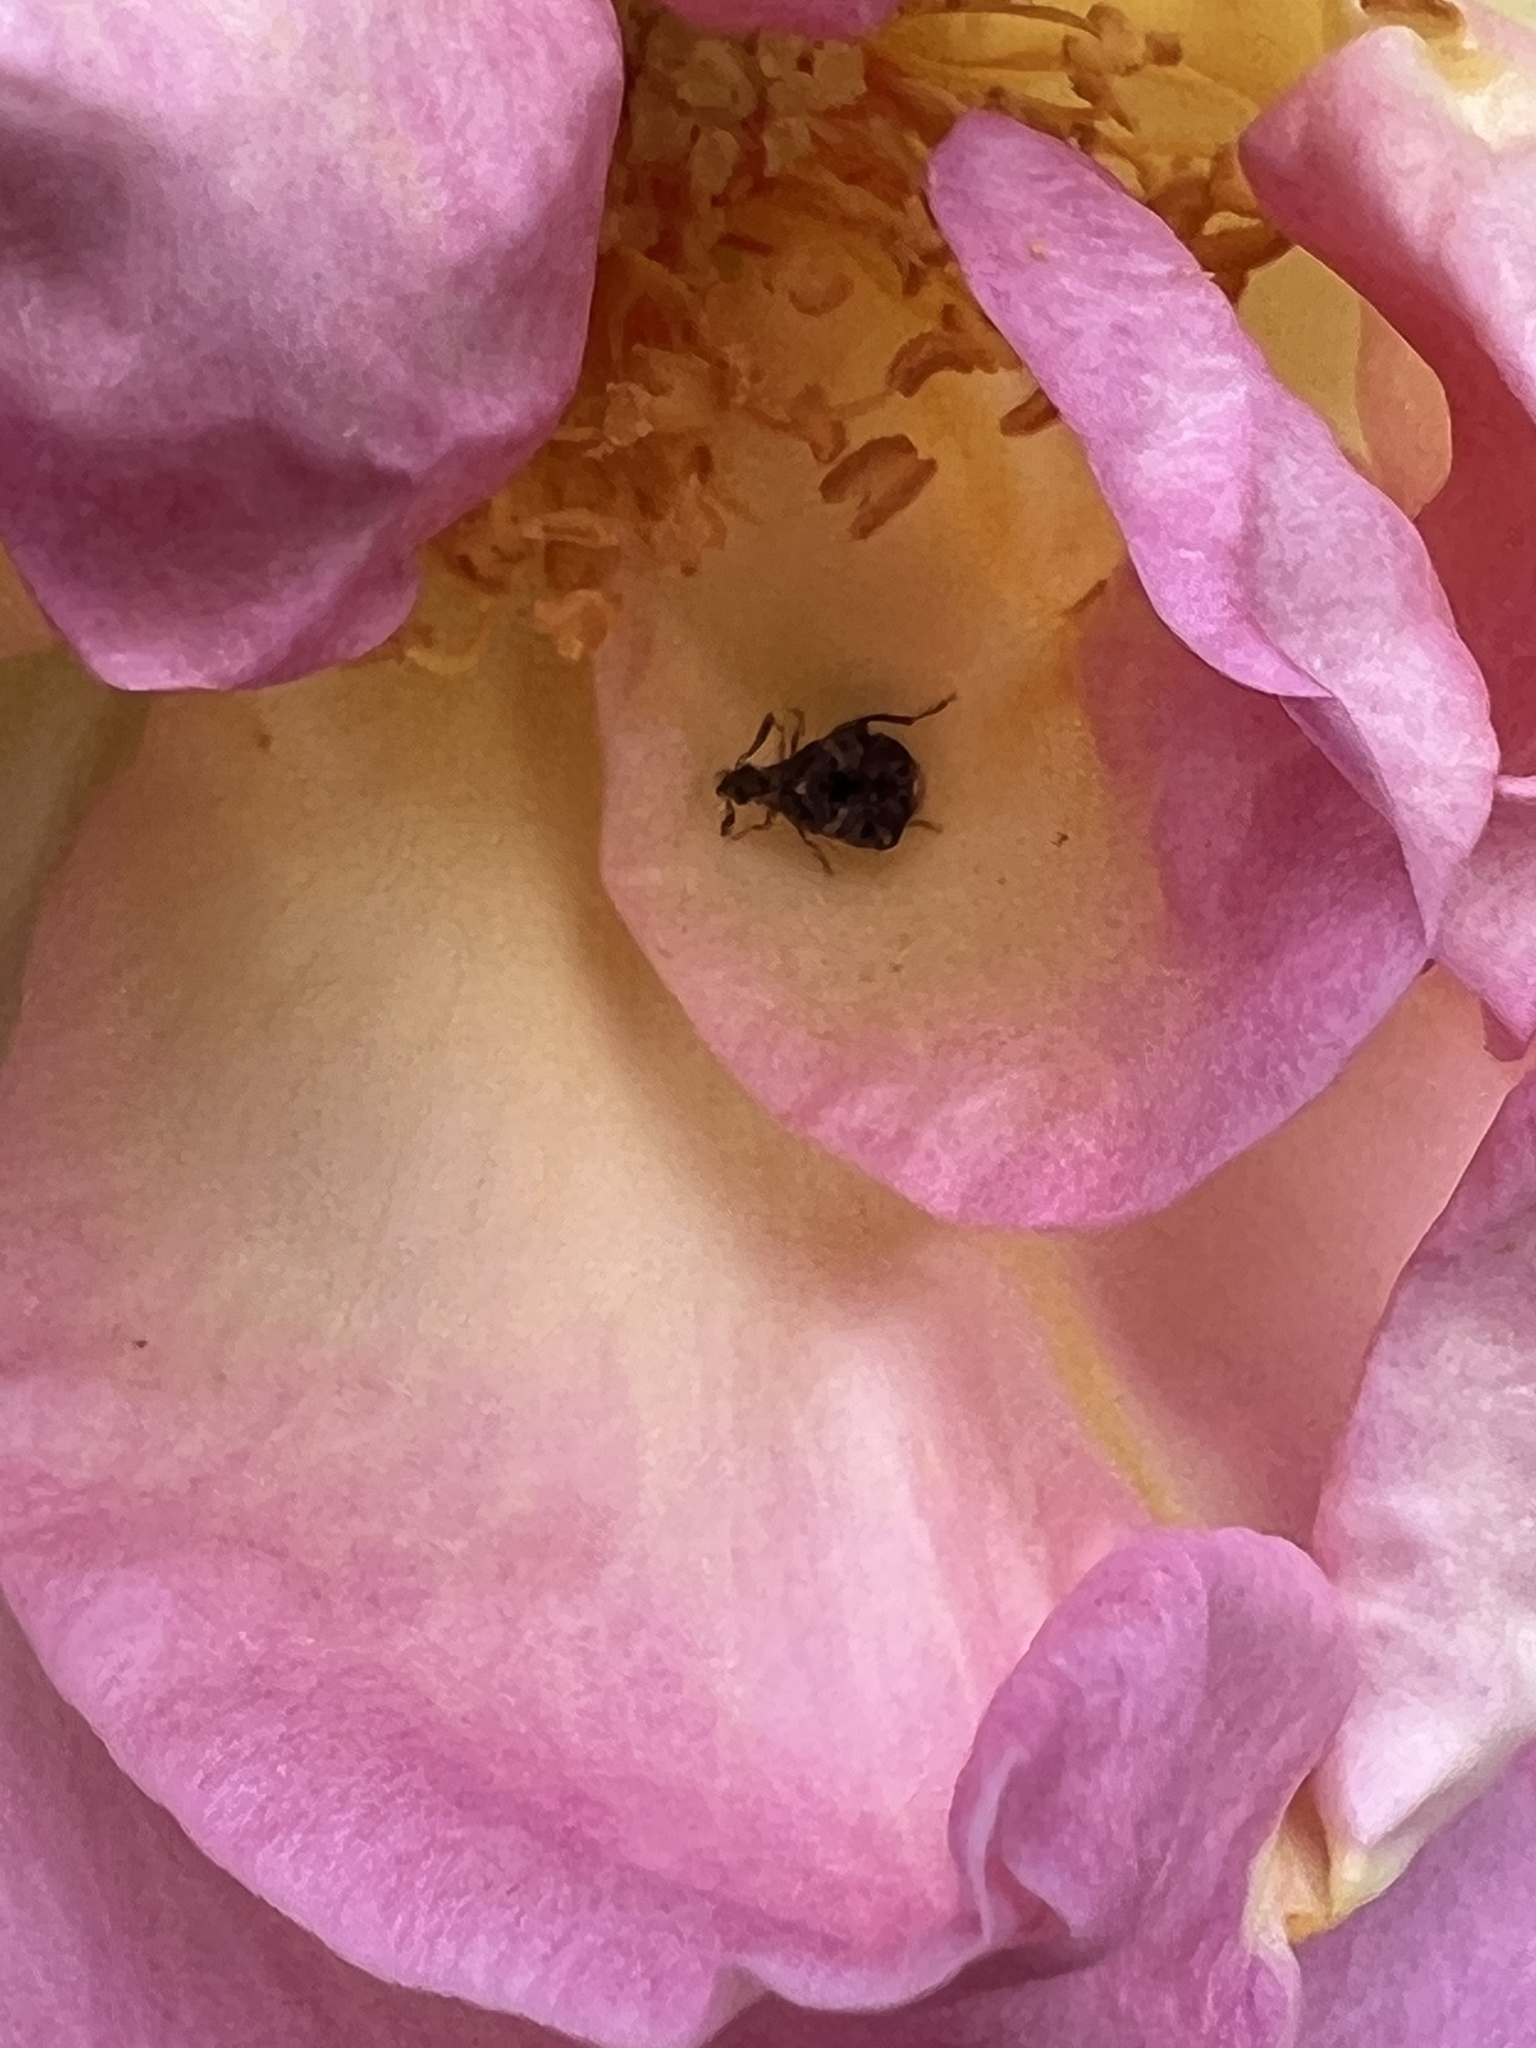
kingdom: Animalia
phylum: Arthropoda
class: Insecta
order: Coleoptera
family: Chrysomelidae
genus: Gibbobruchus
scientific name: Gibbobruchus mimus
